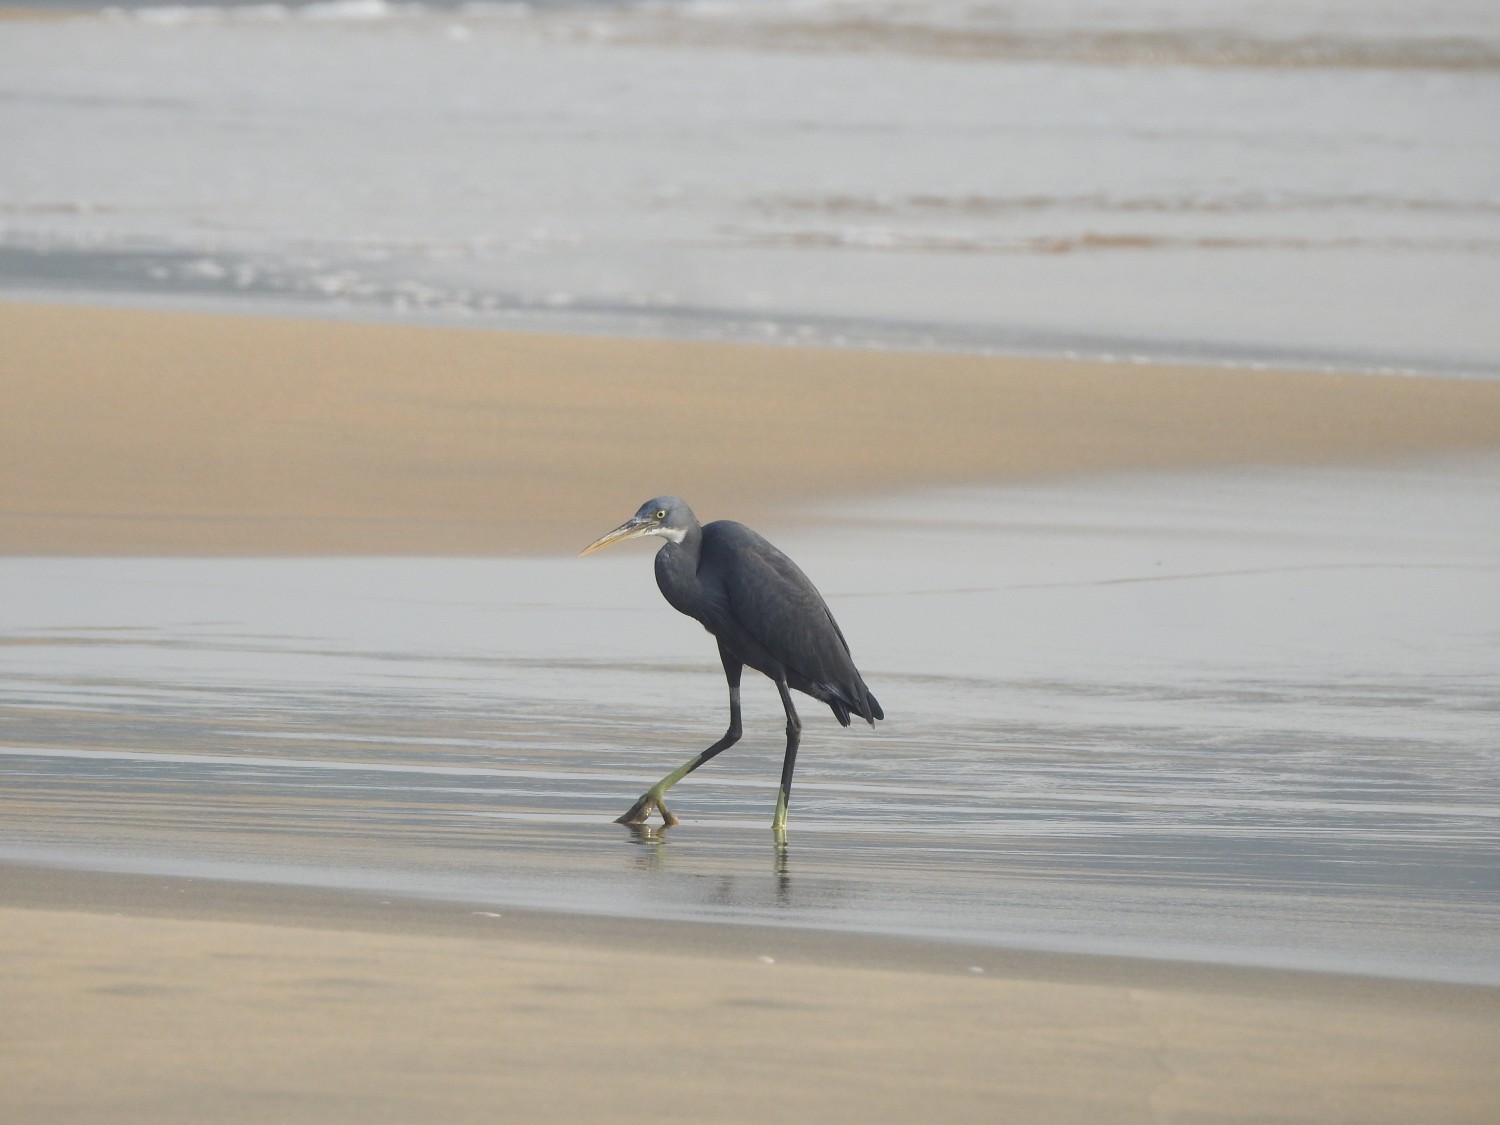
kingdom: Animalia
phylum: Chordata
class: Aves
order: Pelecaniformes
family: Ardeidae
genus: Egretta
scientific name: Egretta gularis
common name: Western reef-heron
